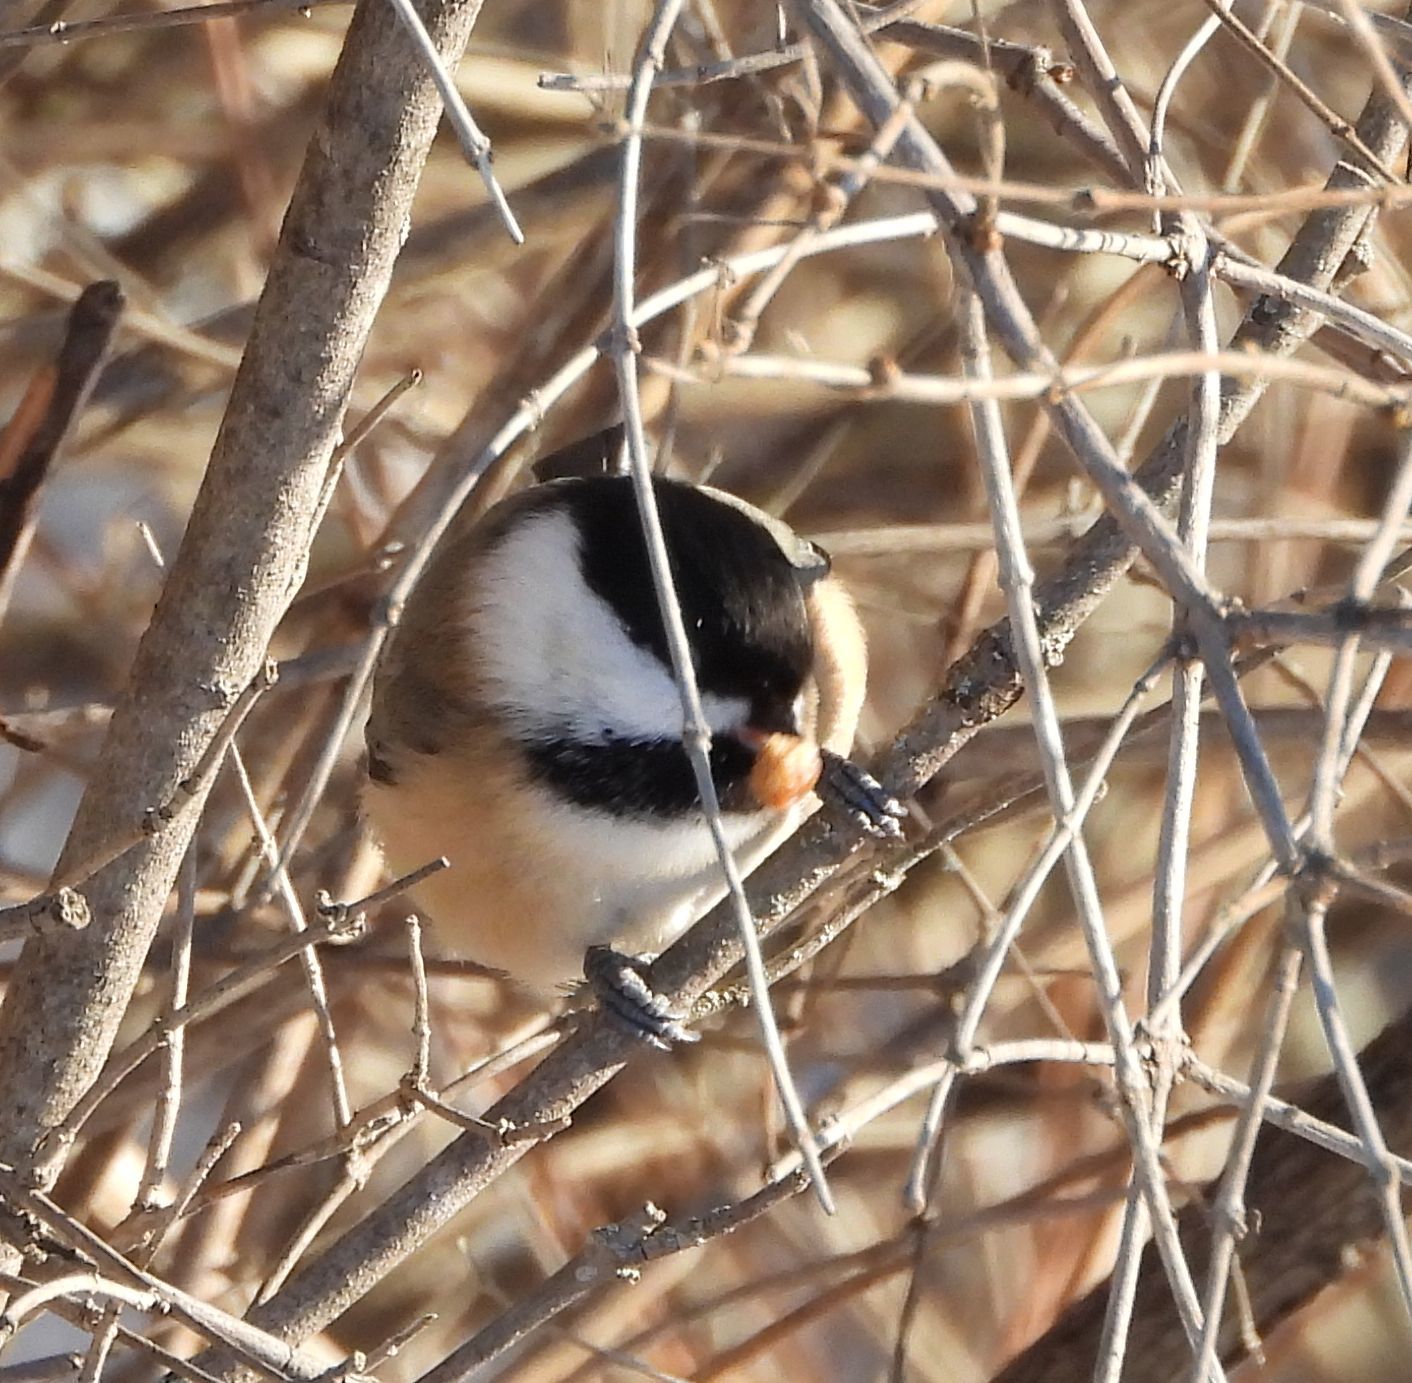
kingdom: Animalia
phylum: Chordata
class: Aves
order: Passeriformes
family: Paridae
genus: Poecile
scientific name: Poecile atricapillus
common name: Black-capped chickadee
